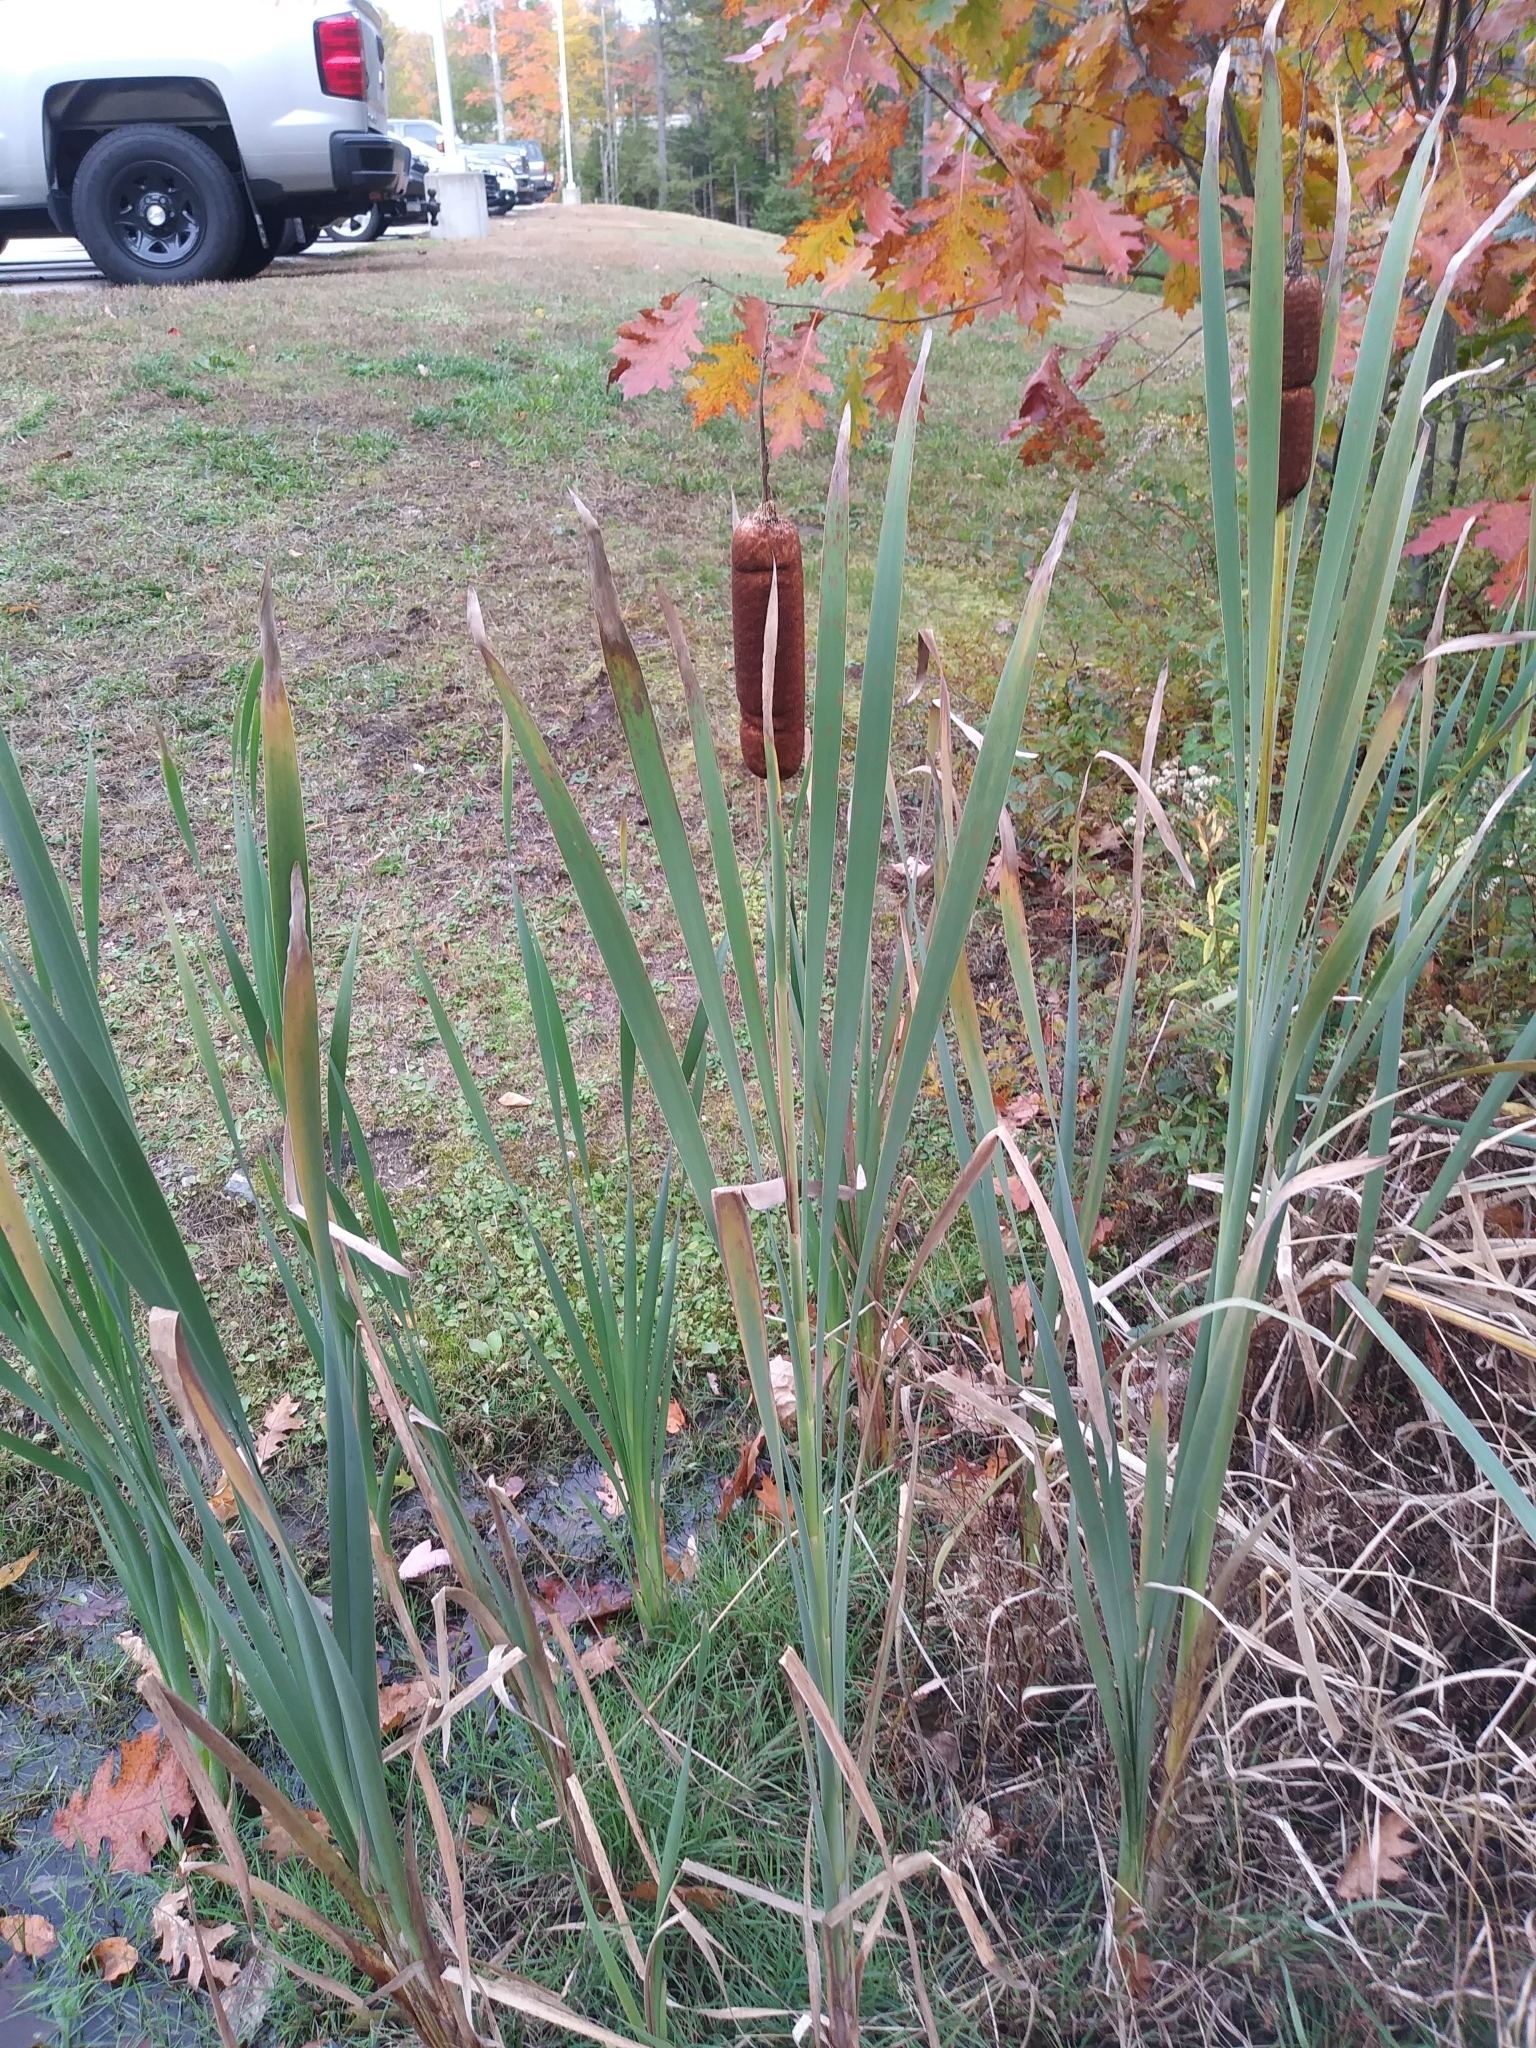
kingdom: Plantae
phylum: Tracheophyta
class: Liliopsida
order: Poales
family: Typhaceae
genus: Typha
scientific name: Typha latifolia
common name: Broadleaf cattail
